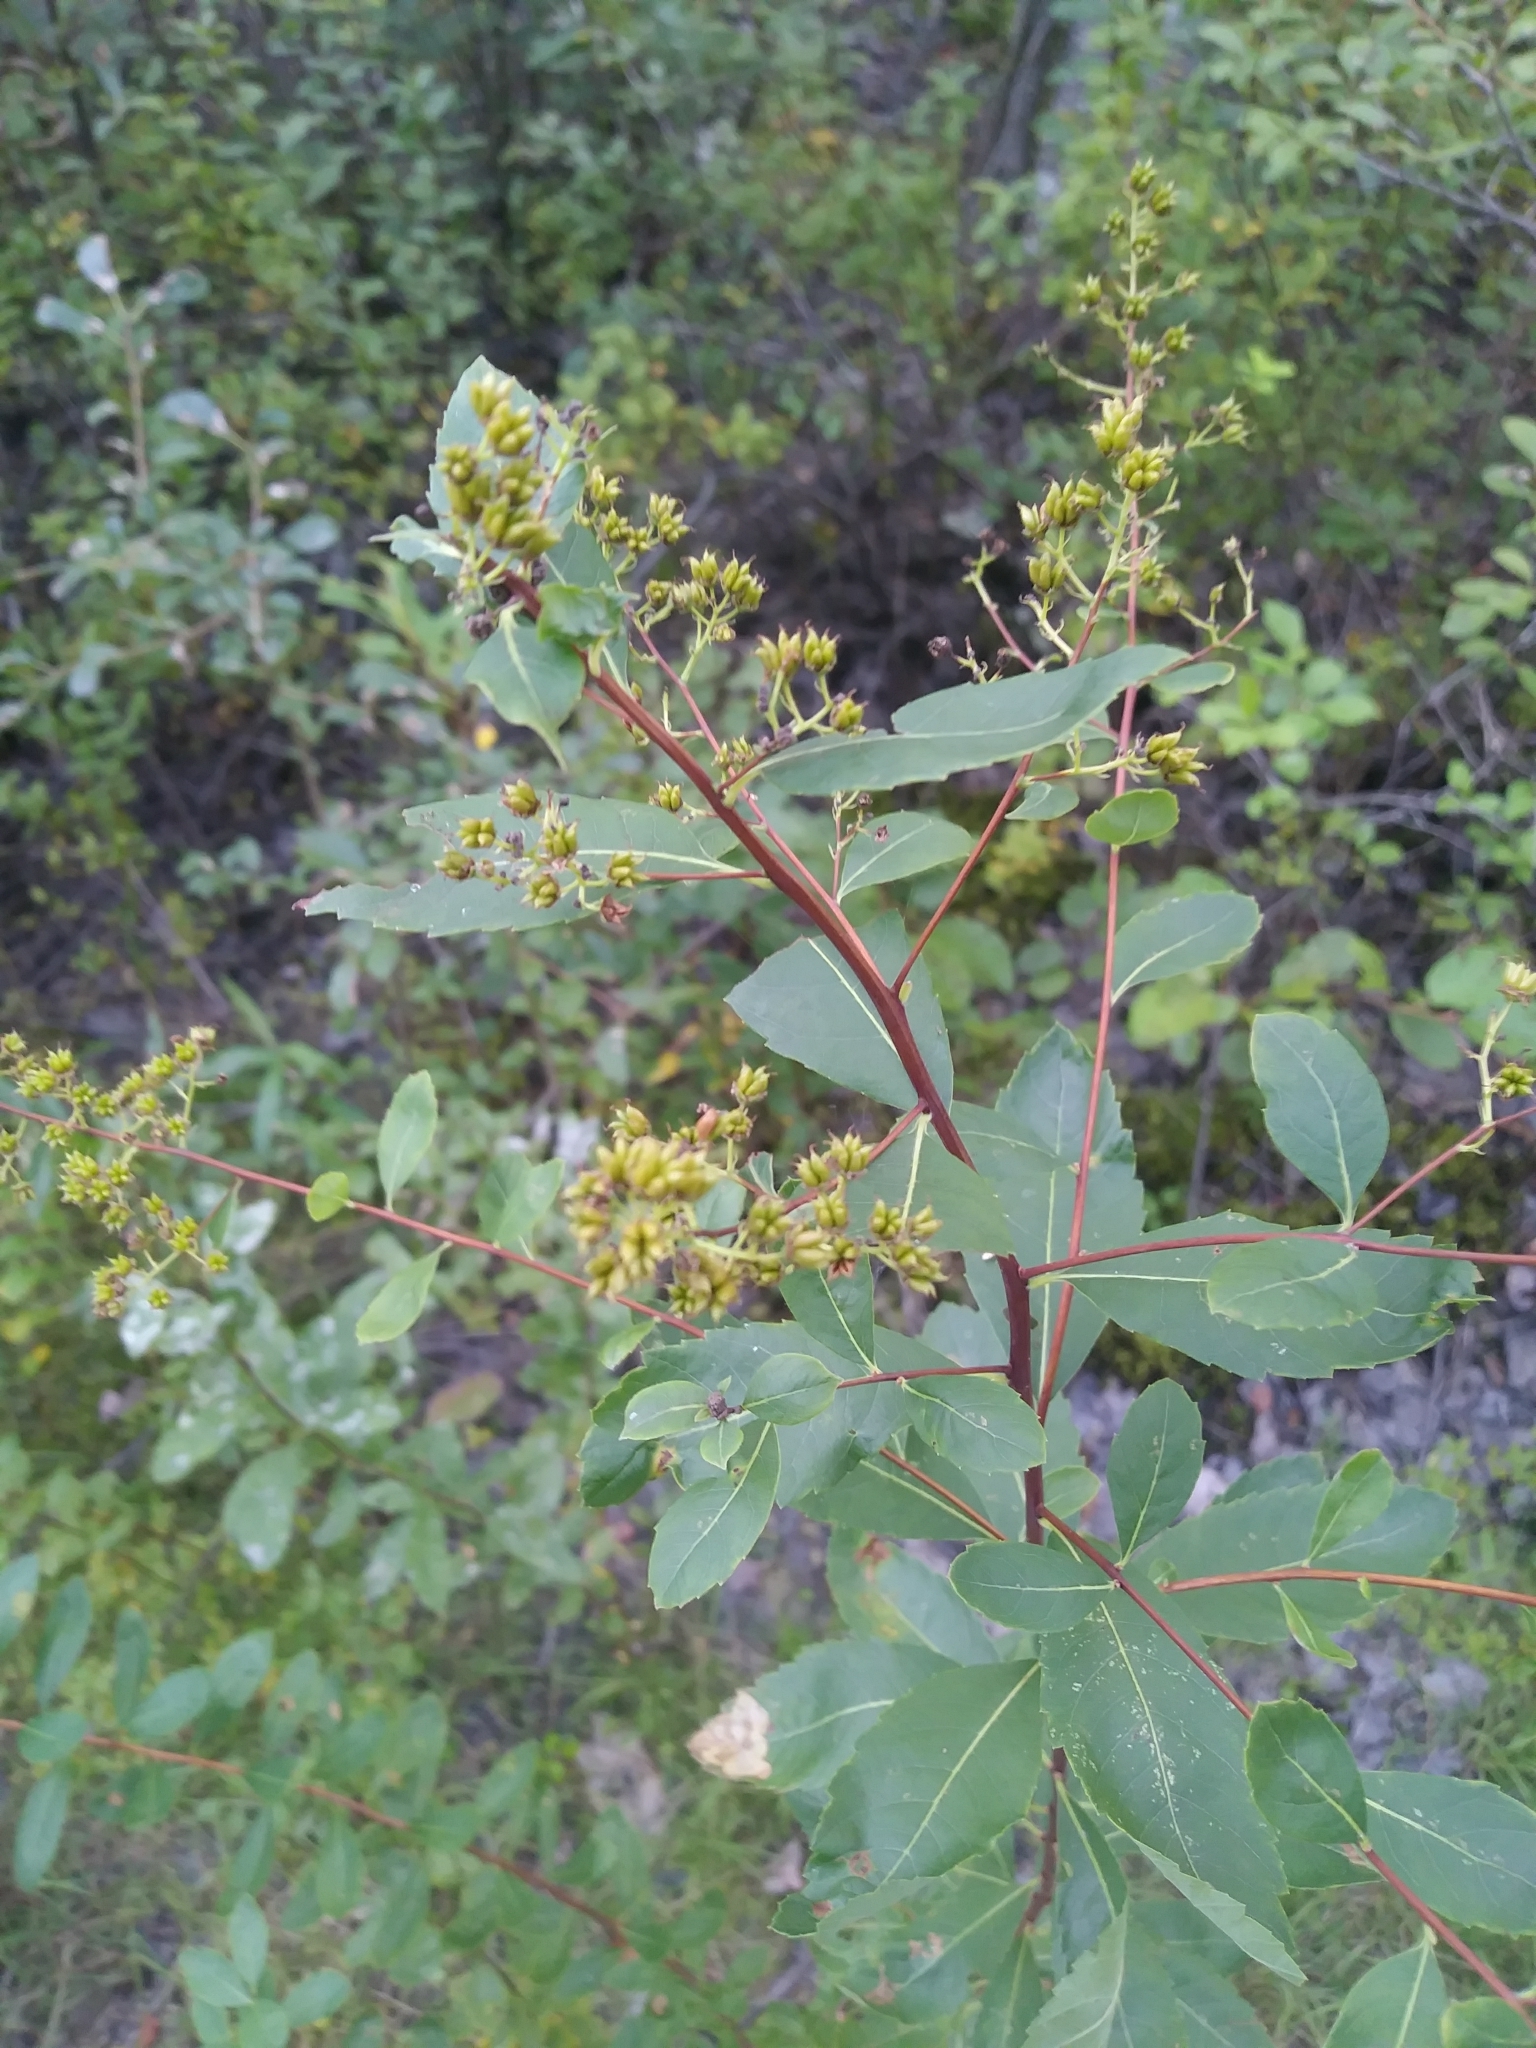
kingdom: Plantae
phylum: Tracheophyta
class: Magnoliopsida
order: Rosales
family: Rosaceae
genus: Spiraea
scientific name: Spiraea alba
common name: Pale bridewort
